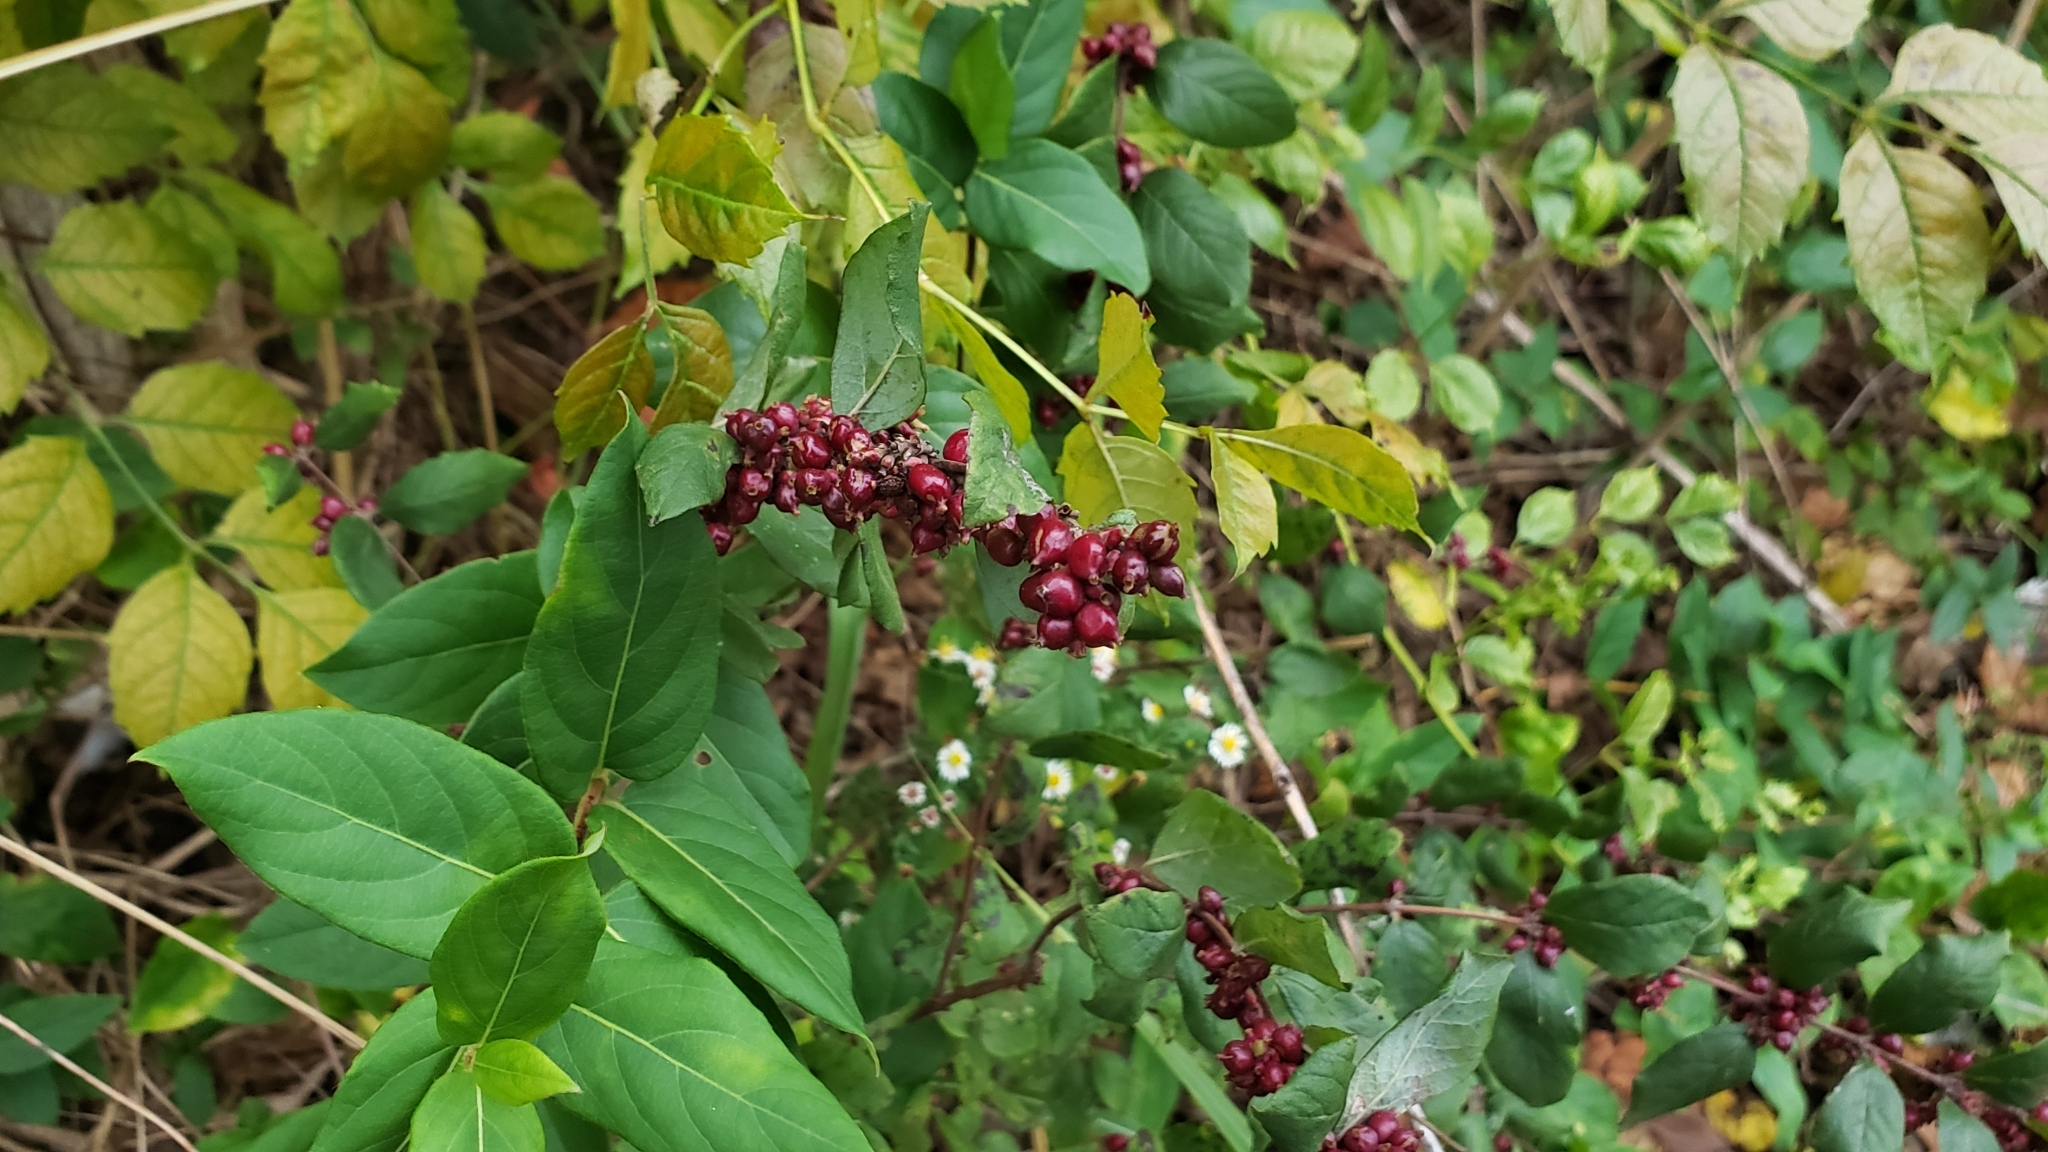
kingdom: Plantae
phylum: Tracheophyta
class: Magnoliopsida
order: Dipsacales
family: Caprifoliaceae
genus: Symphoricarpos
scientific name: Symphoricarpos orbiculatus
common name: Coralberry
